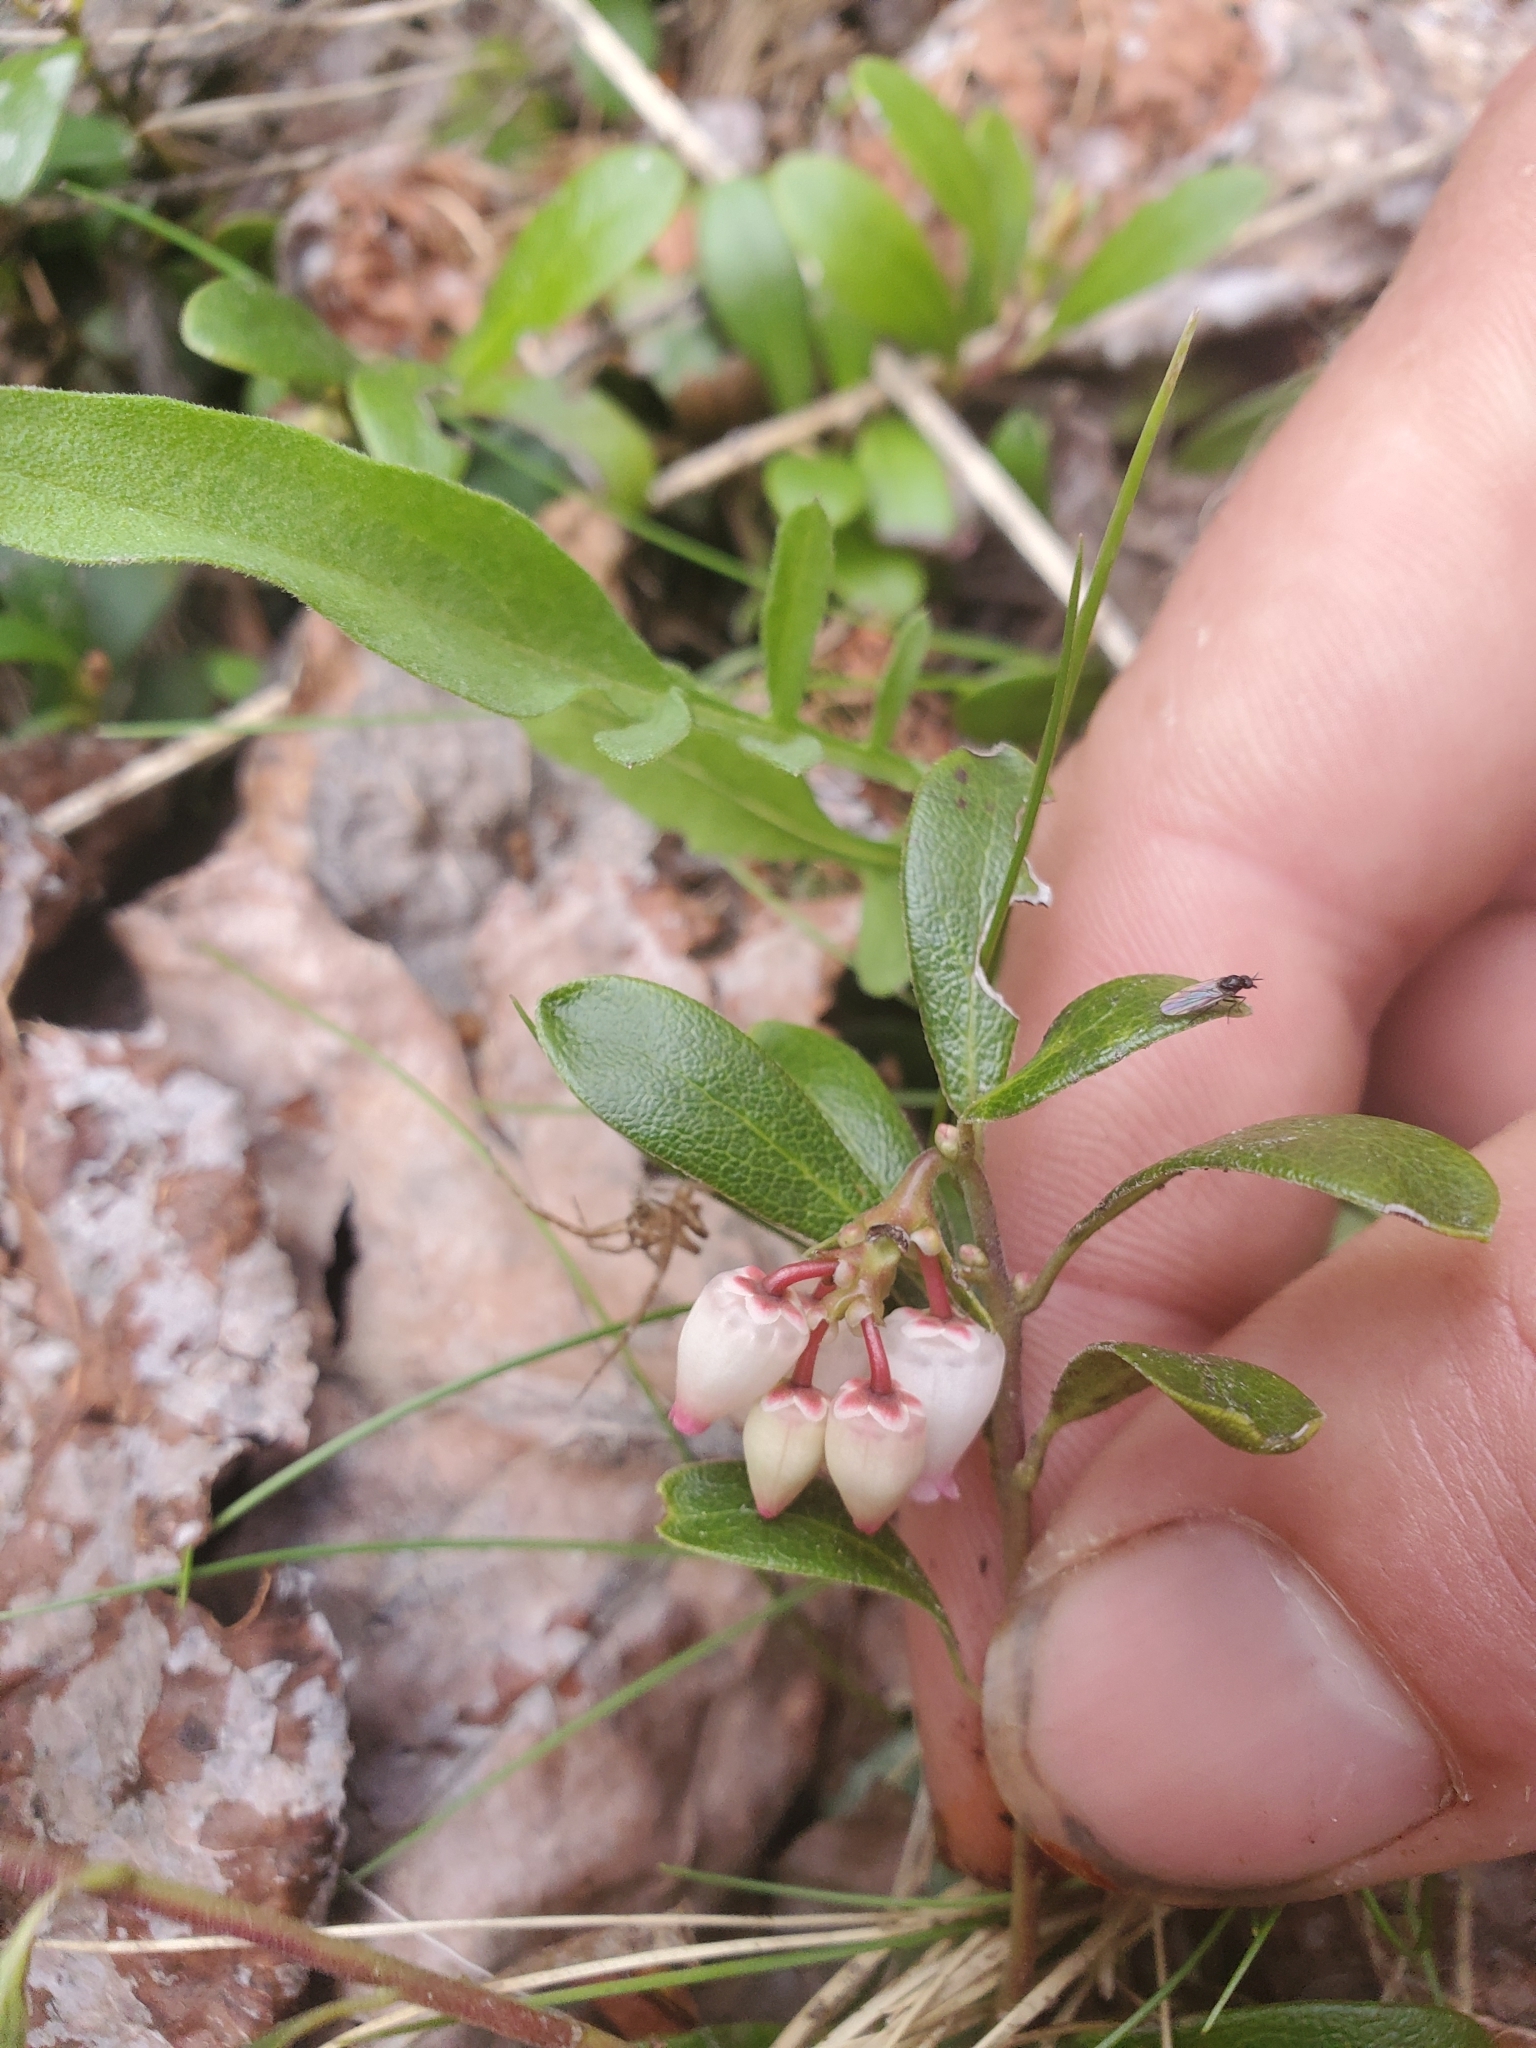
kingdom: Plantae
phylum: Tracheophyta
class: Magnoliopsida
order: Ericales
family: Ericaceae
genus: Arctostaphylos
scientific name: Arctostaphylos uva-ursi
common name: Bearberry
